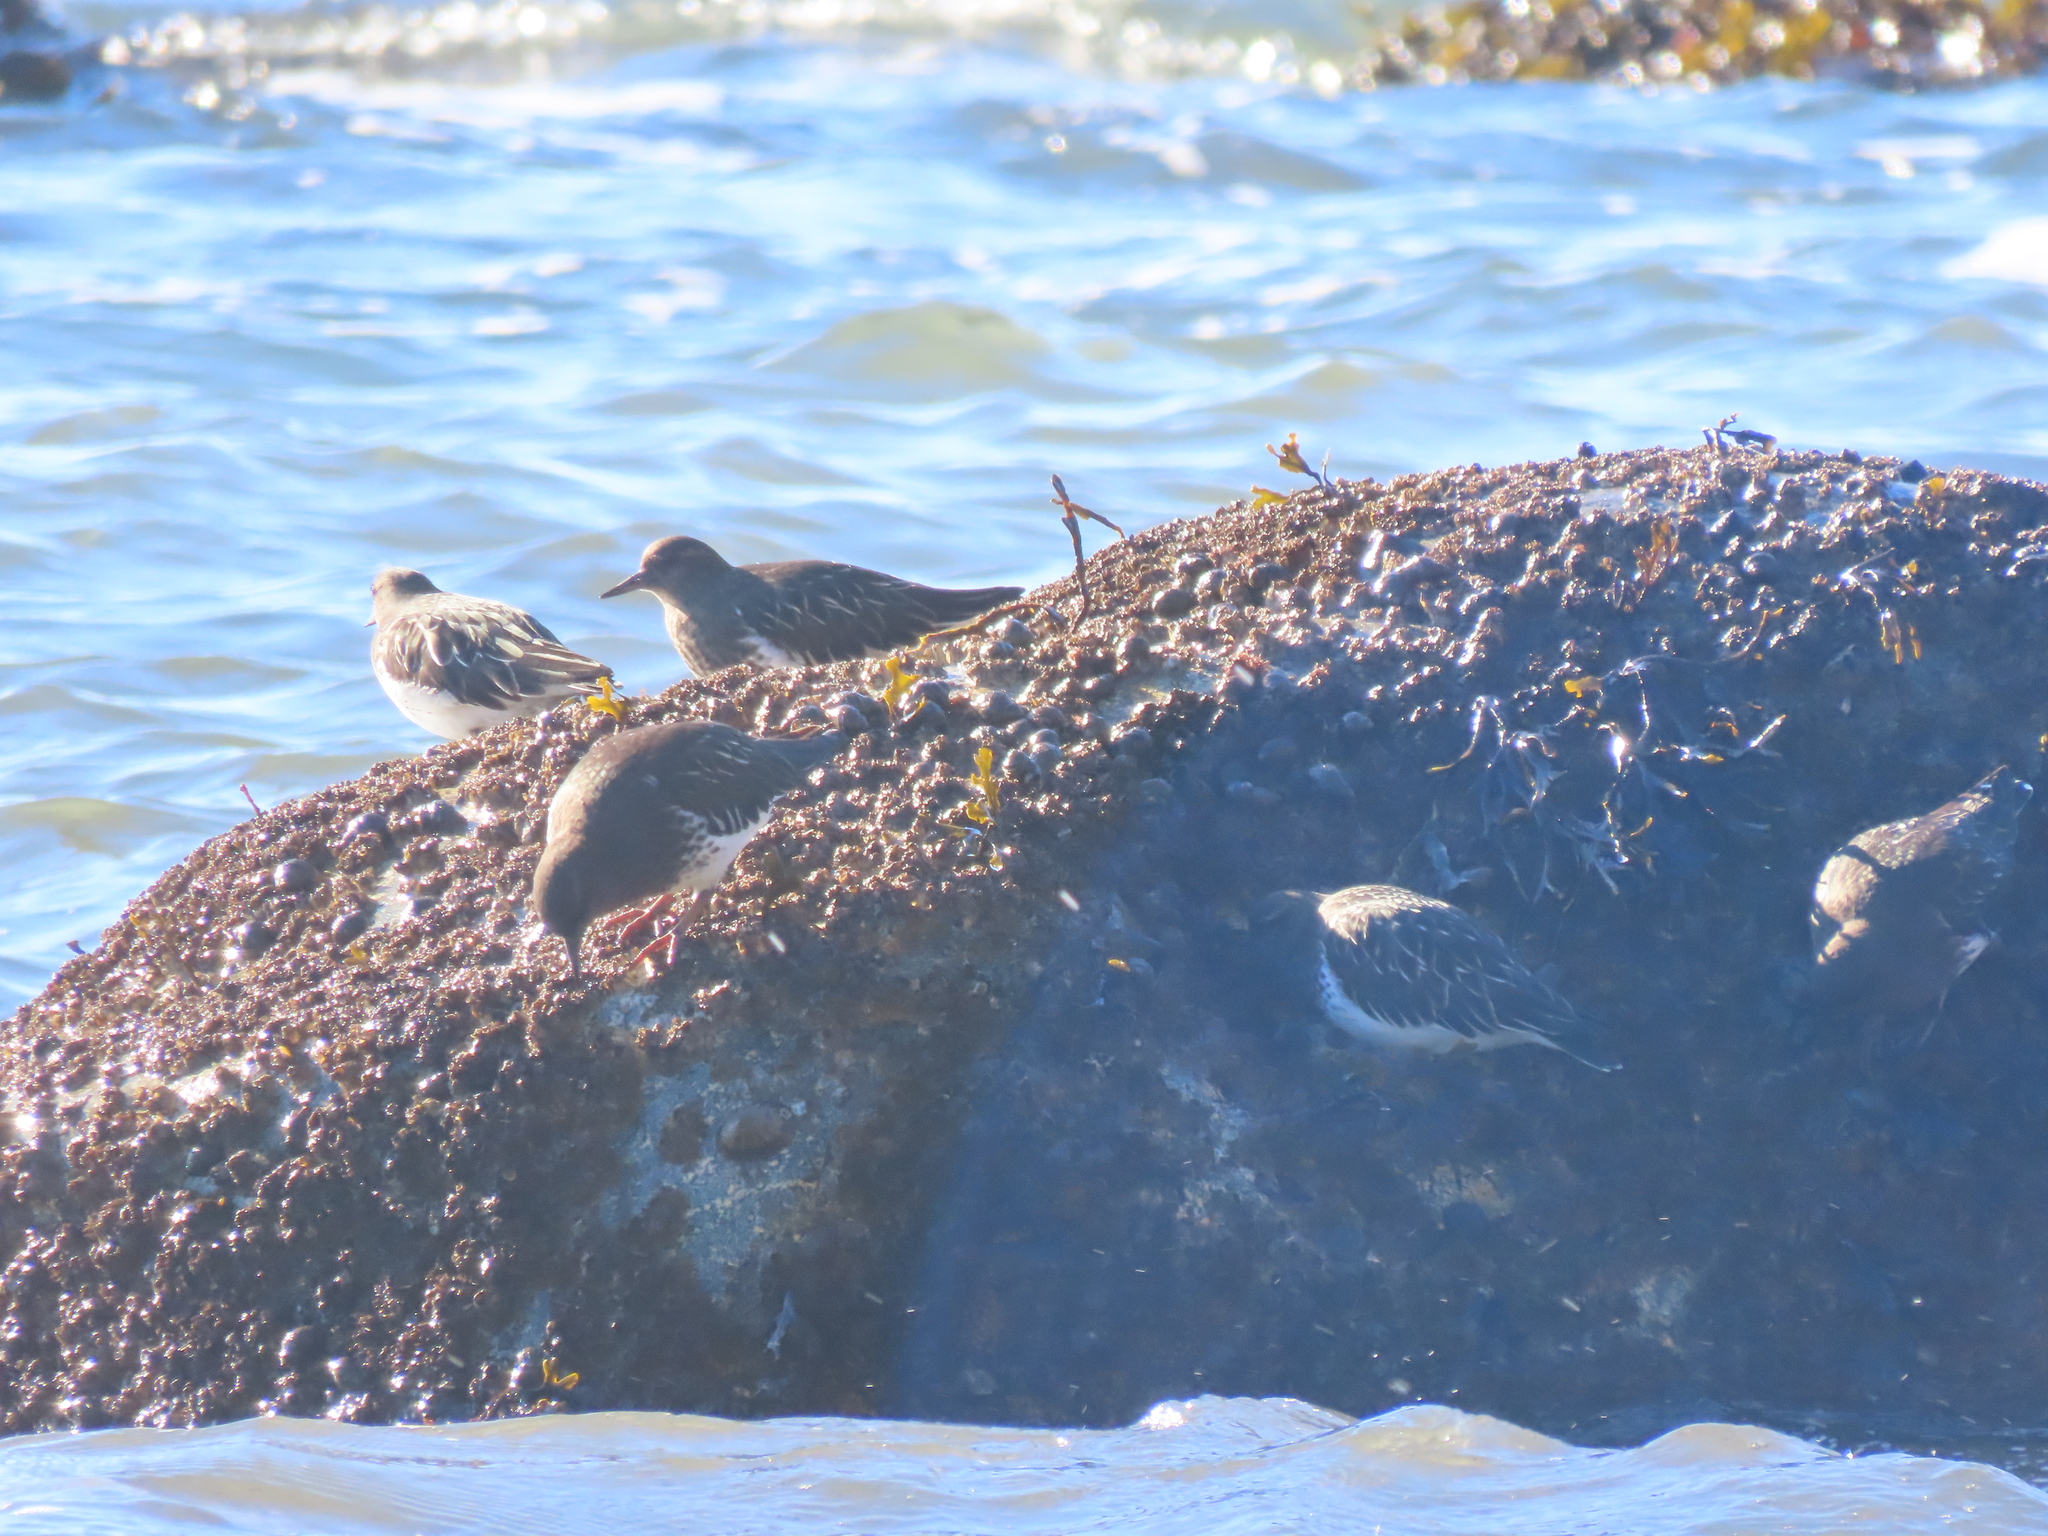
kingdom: Animalia
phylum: Chordata
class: Aves
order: Charadriiformes
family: Scolopacidae
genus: Arenaria
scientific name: Arenaria melanocephala
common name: Black turnstone
